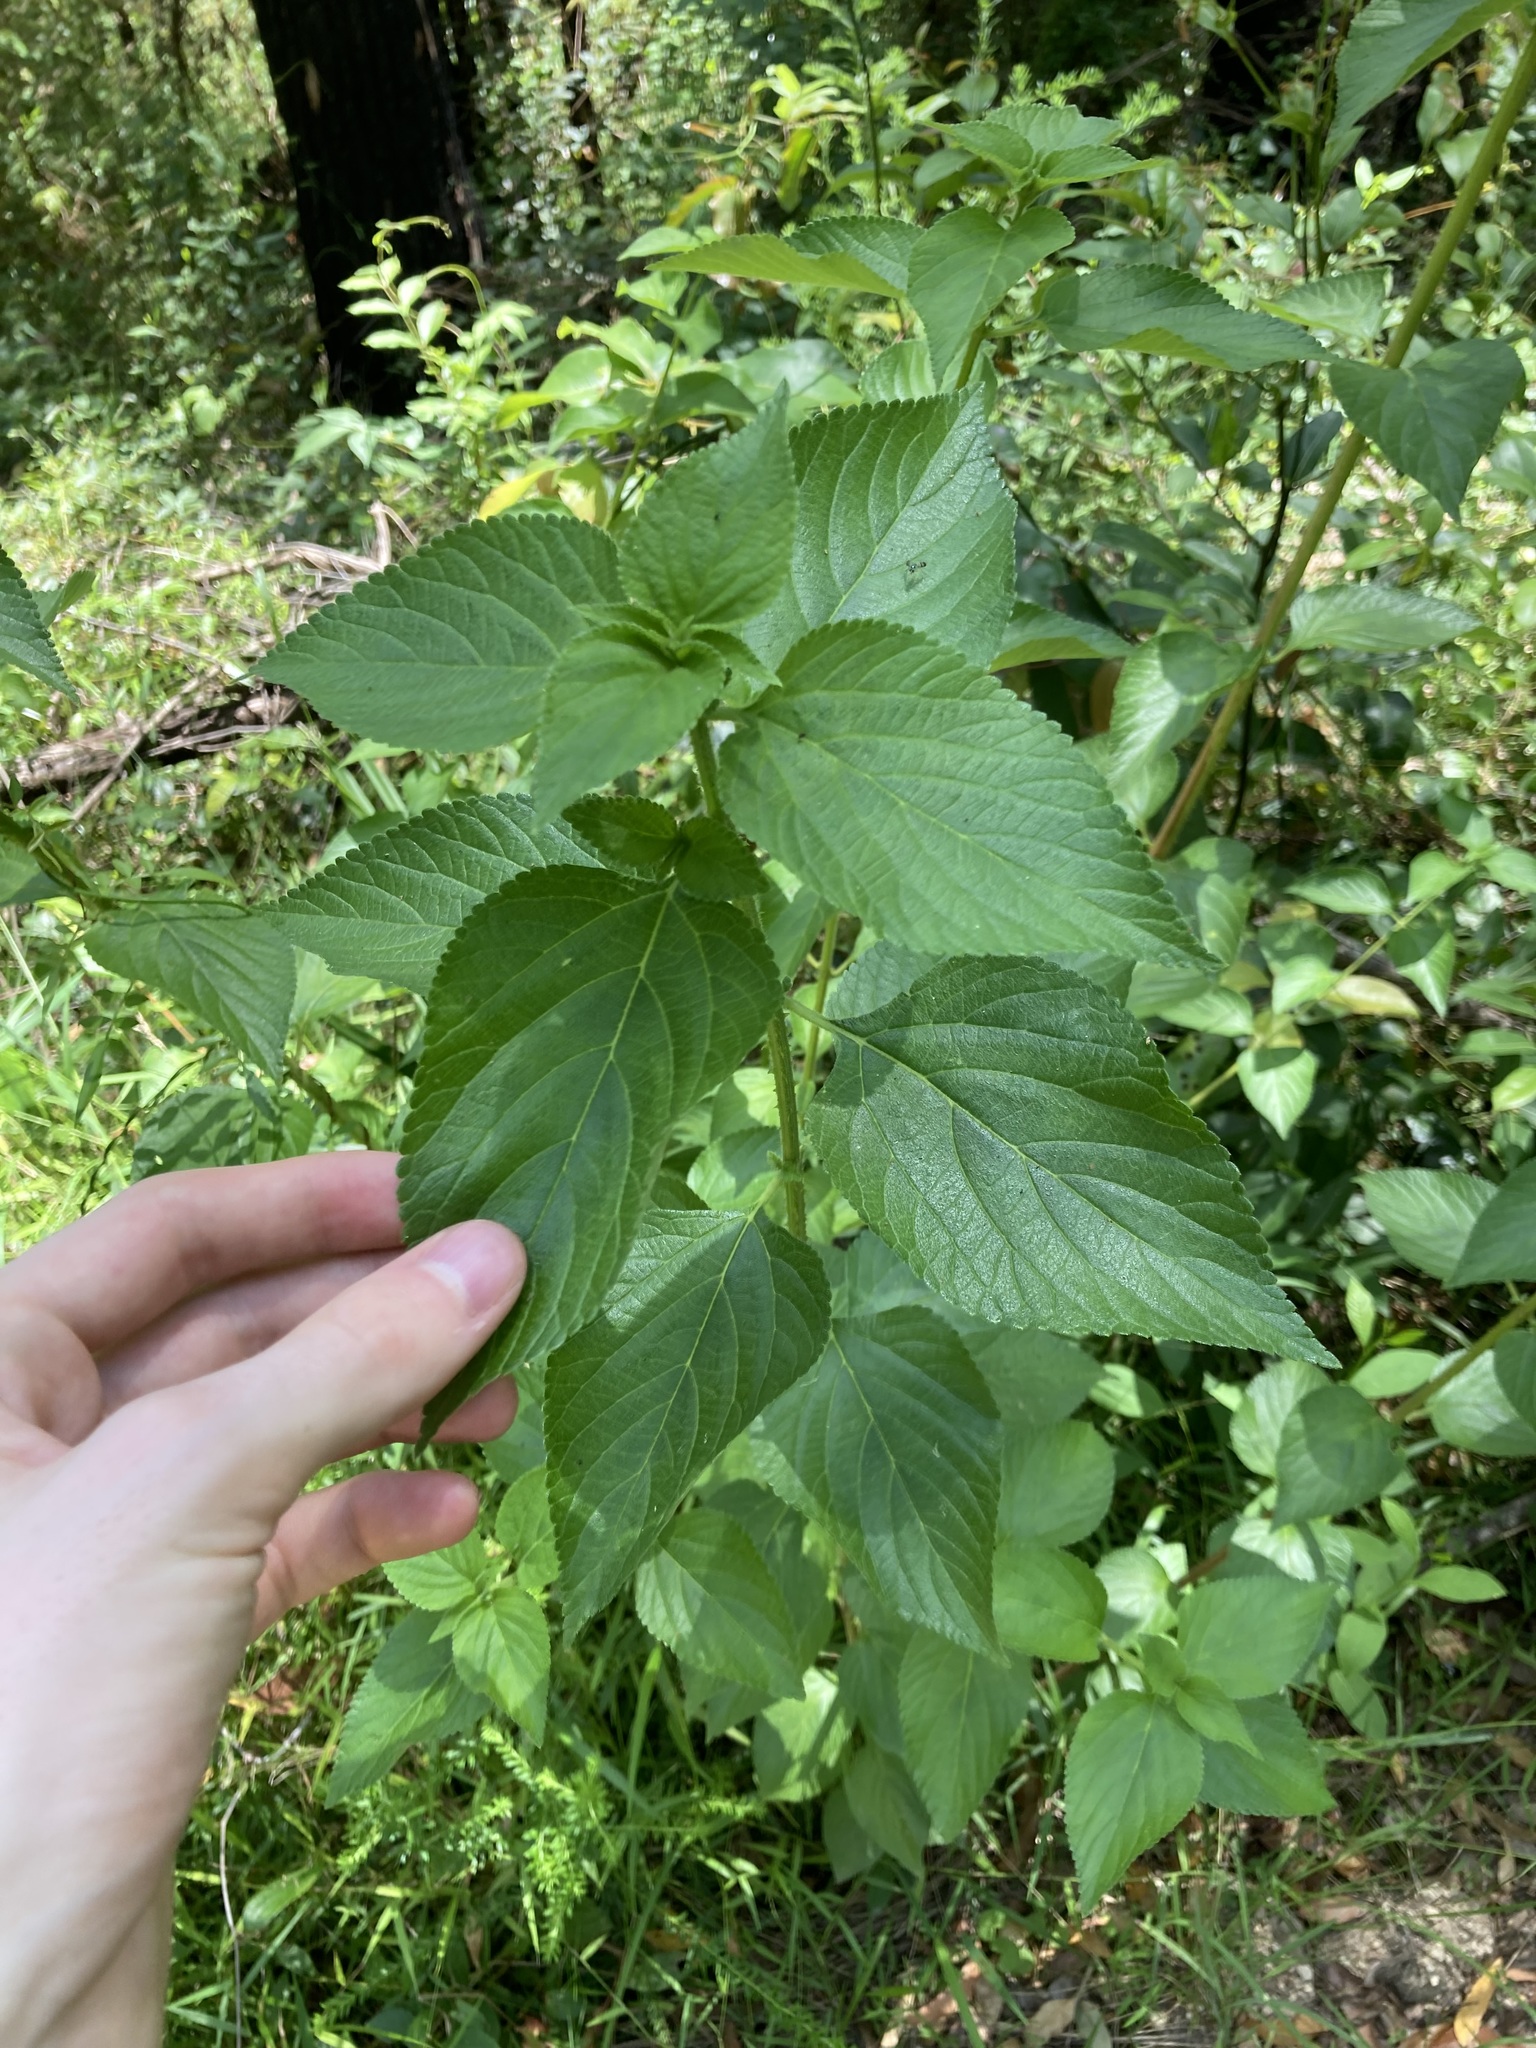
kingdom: Plantae
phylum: Tracheophyta
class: Magnoliopsida
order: Lamiales
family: Verbenaceae
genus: Lantana
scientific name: Lantana camara
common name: Lantana
